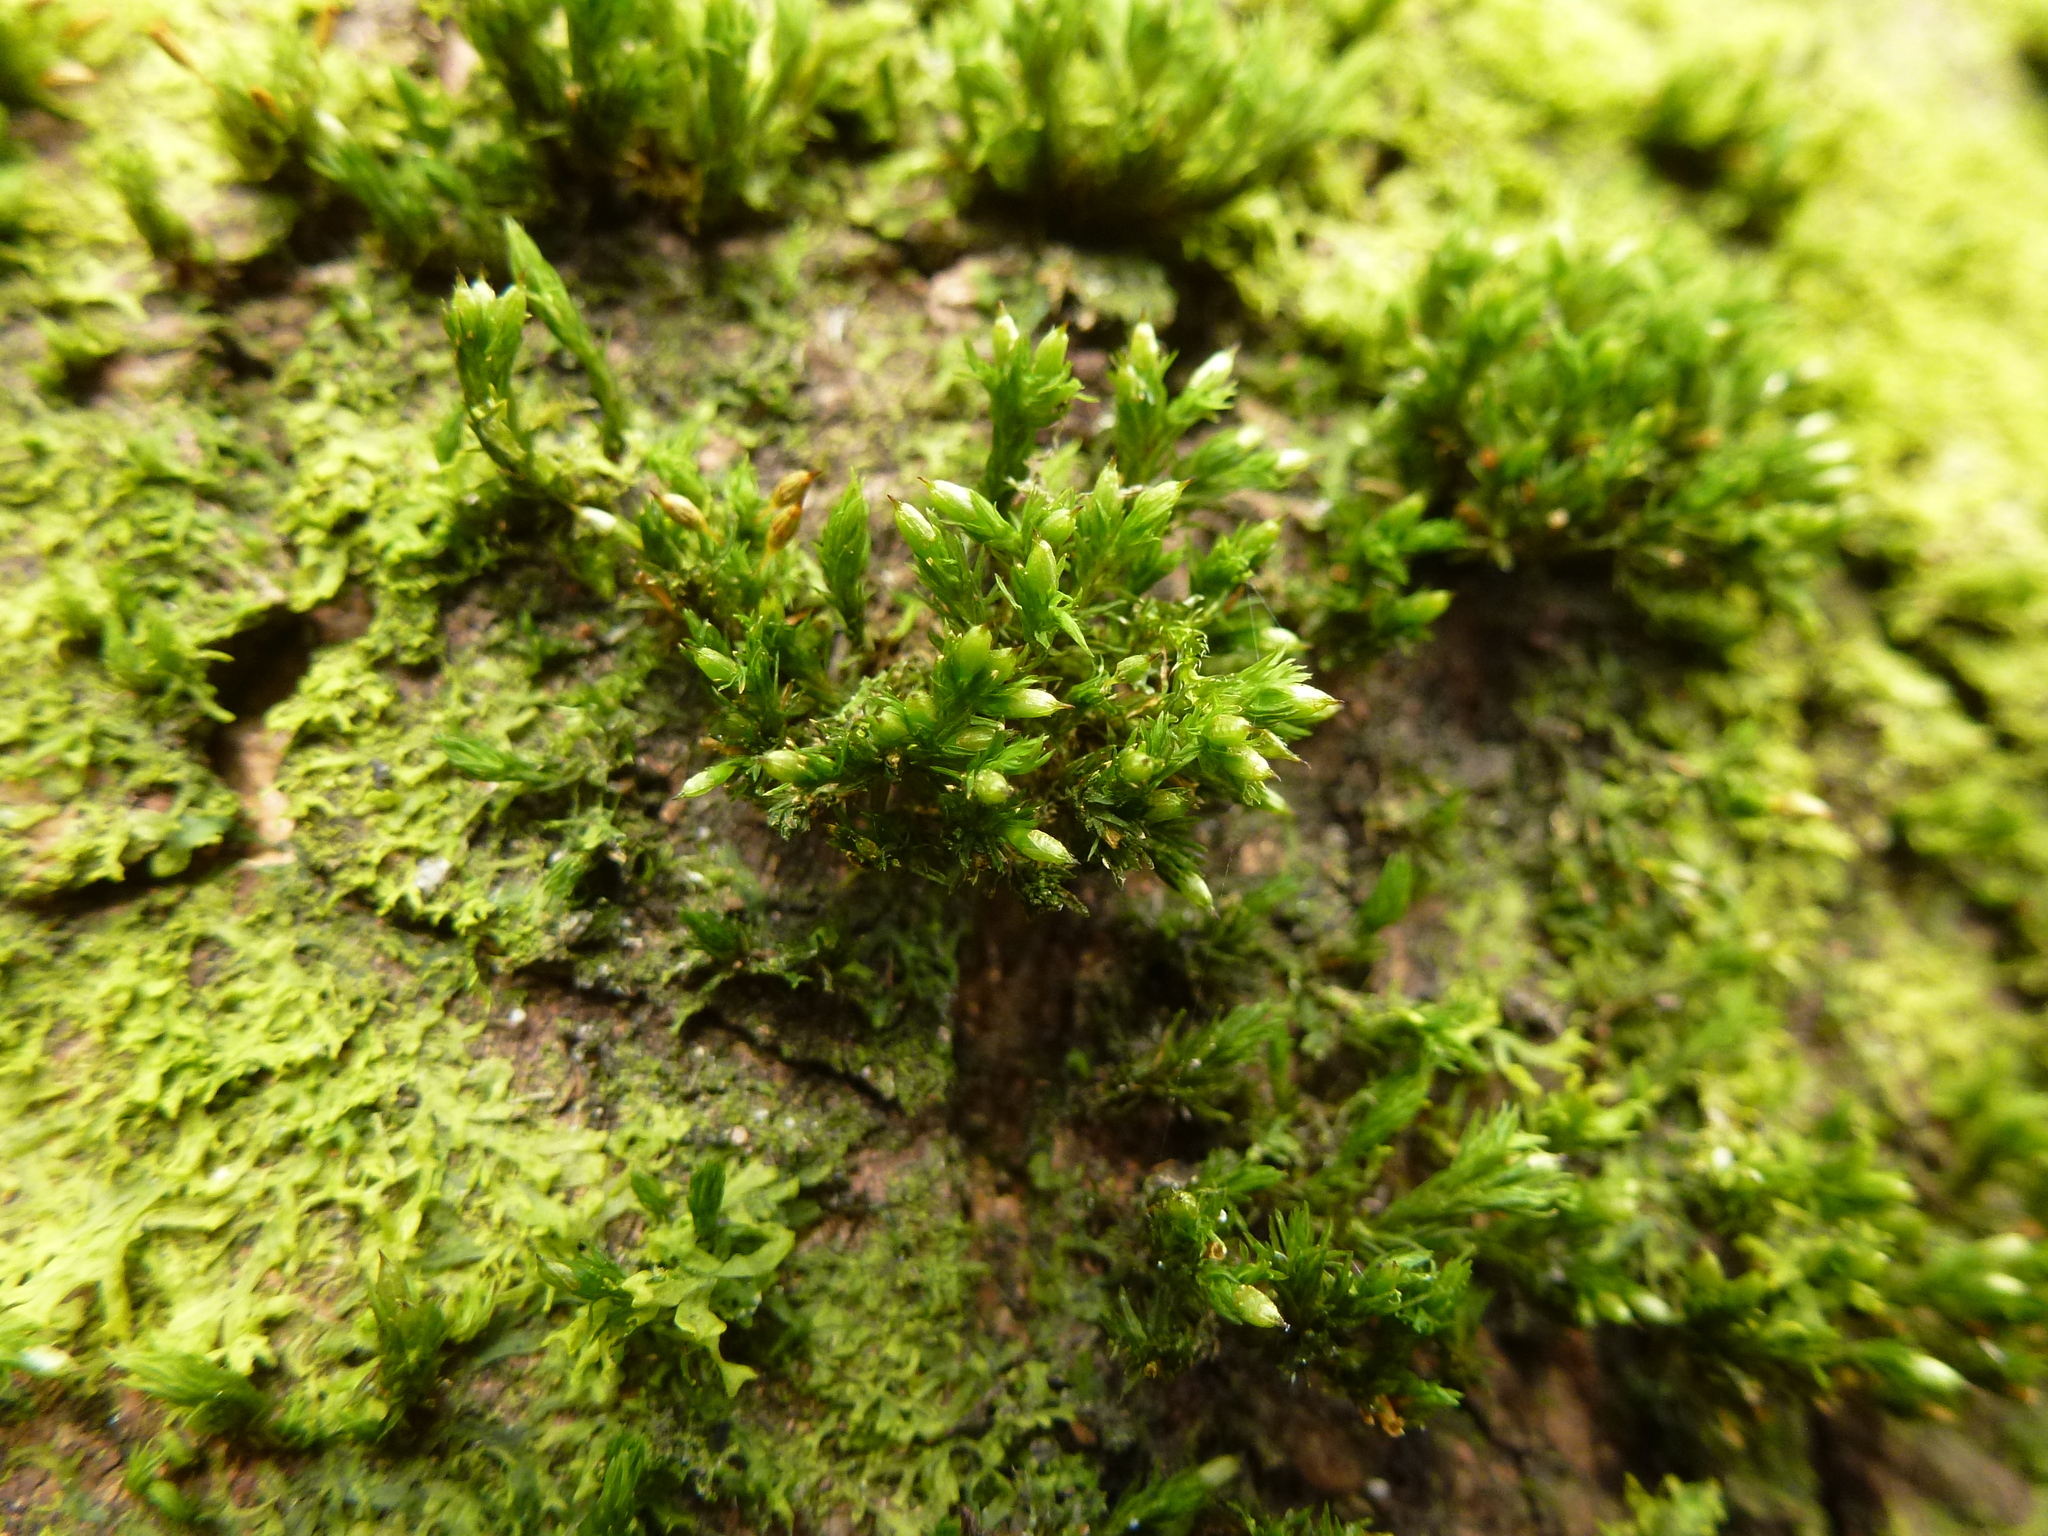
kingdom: Plantae
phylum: Bryophyta
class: Bryopsida
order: Orthotrichales
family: Orthotrichaceae
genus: Orthotrichum
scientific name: Orthotrichum stramineum
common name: Straw bristle-moss
